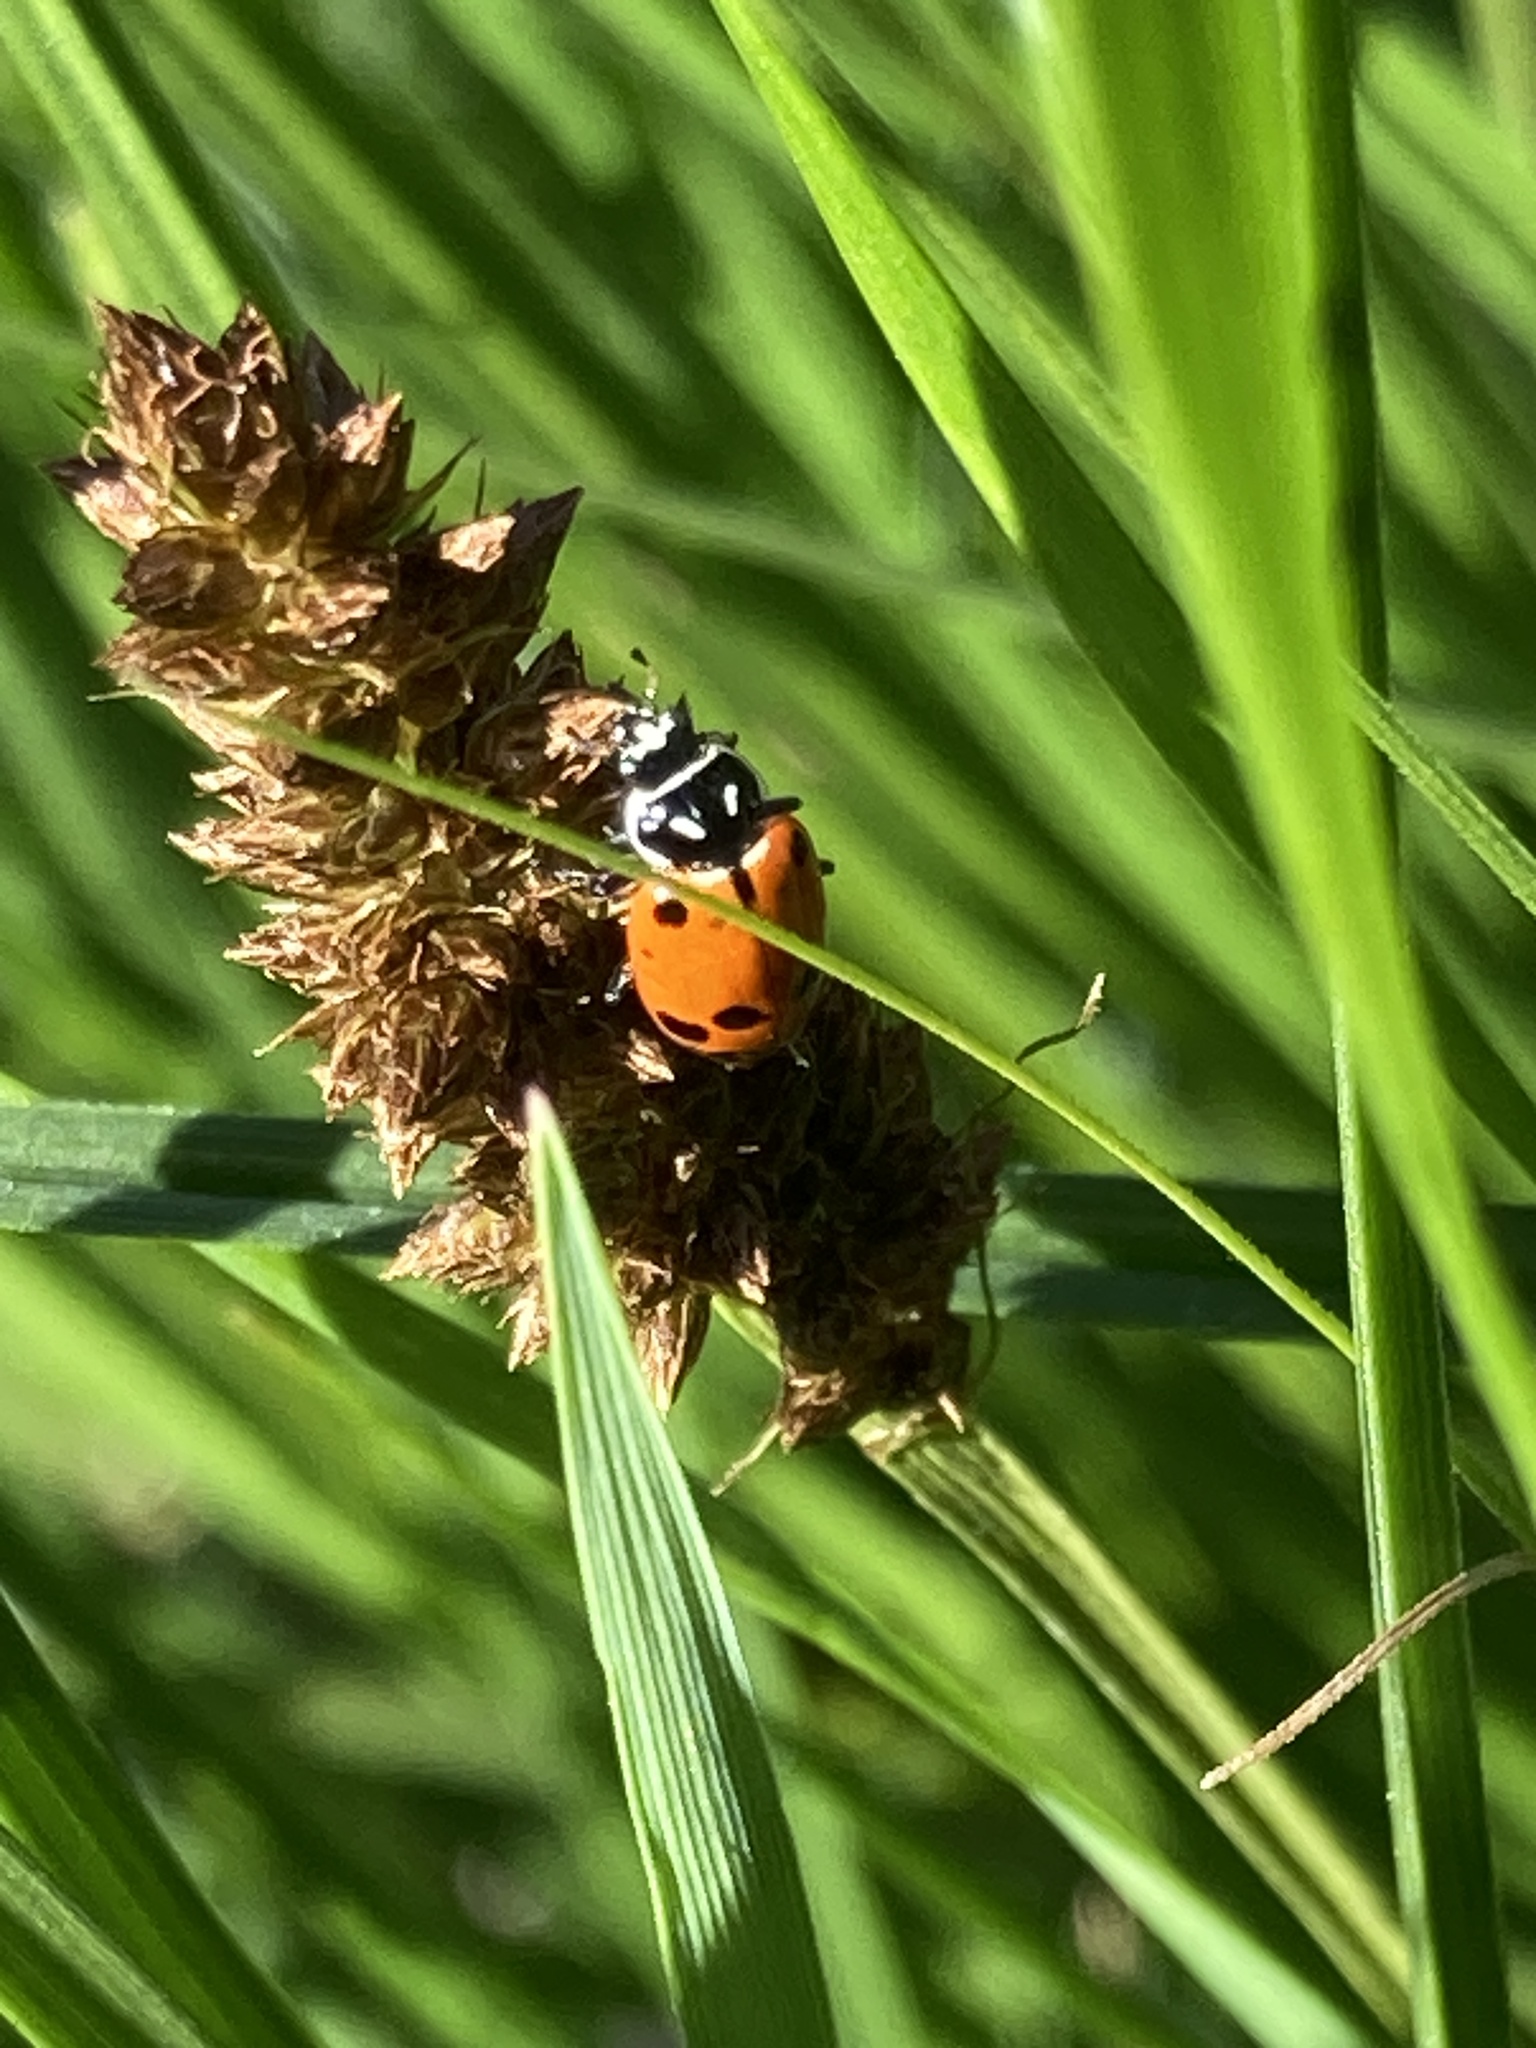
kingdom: Animalia
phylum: Arthropoda
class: Insecta
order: Coleoptera
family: Coccinellidae
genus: Hippodamia
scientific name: Hippodamia convergens
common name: Convergent lady beetle
